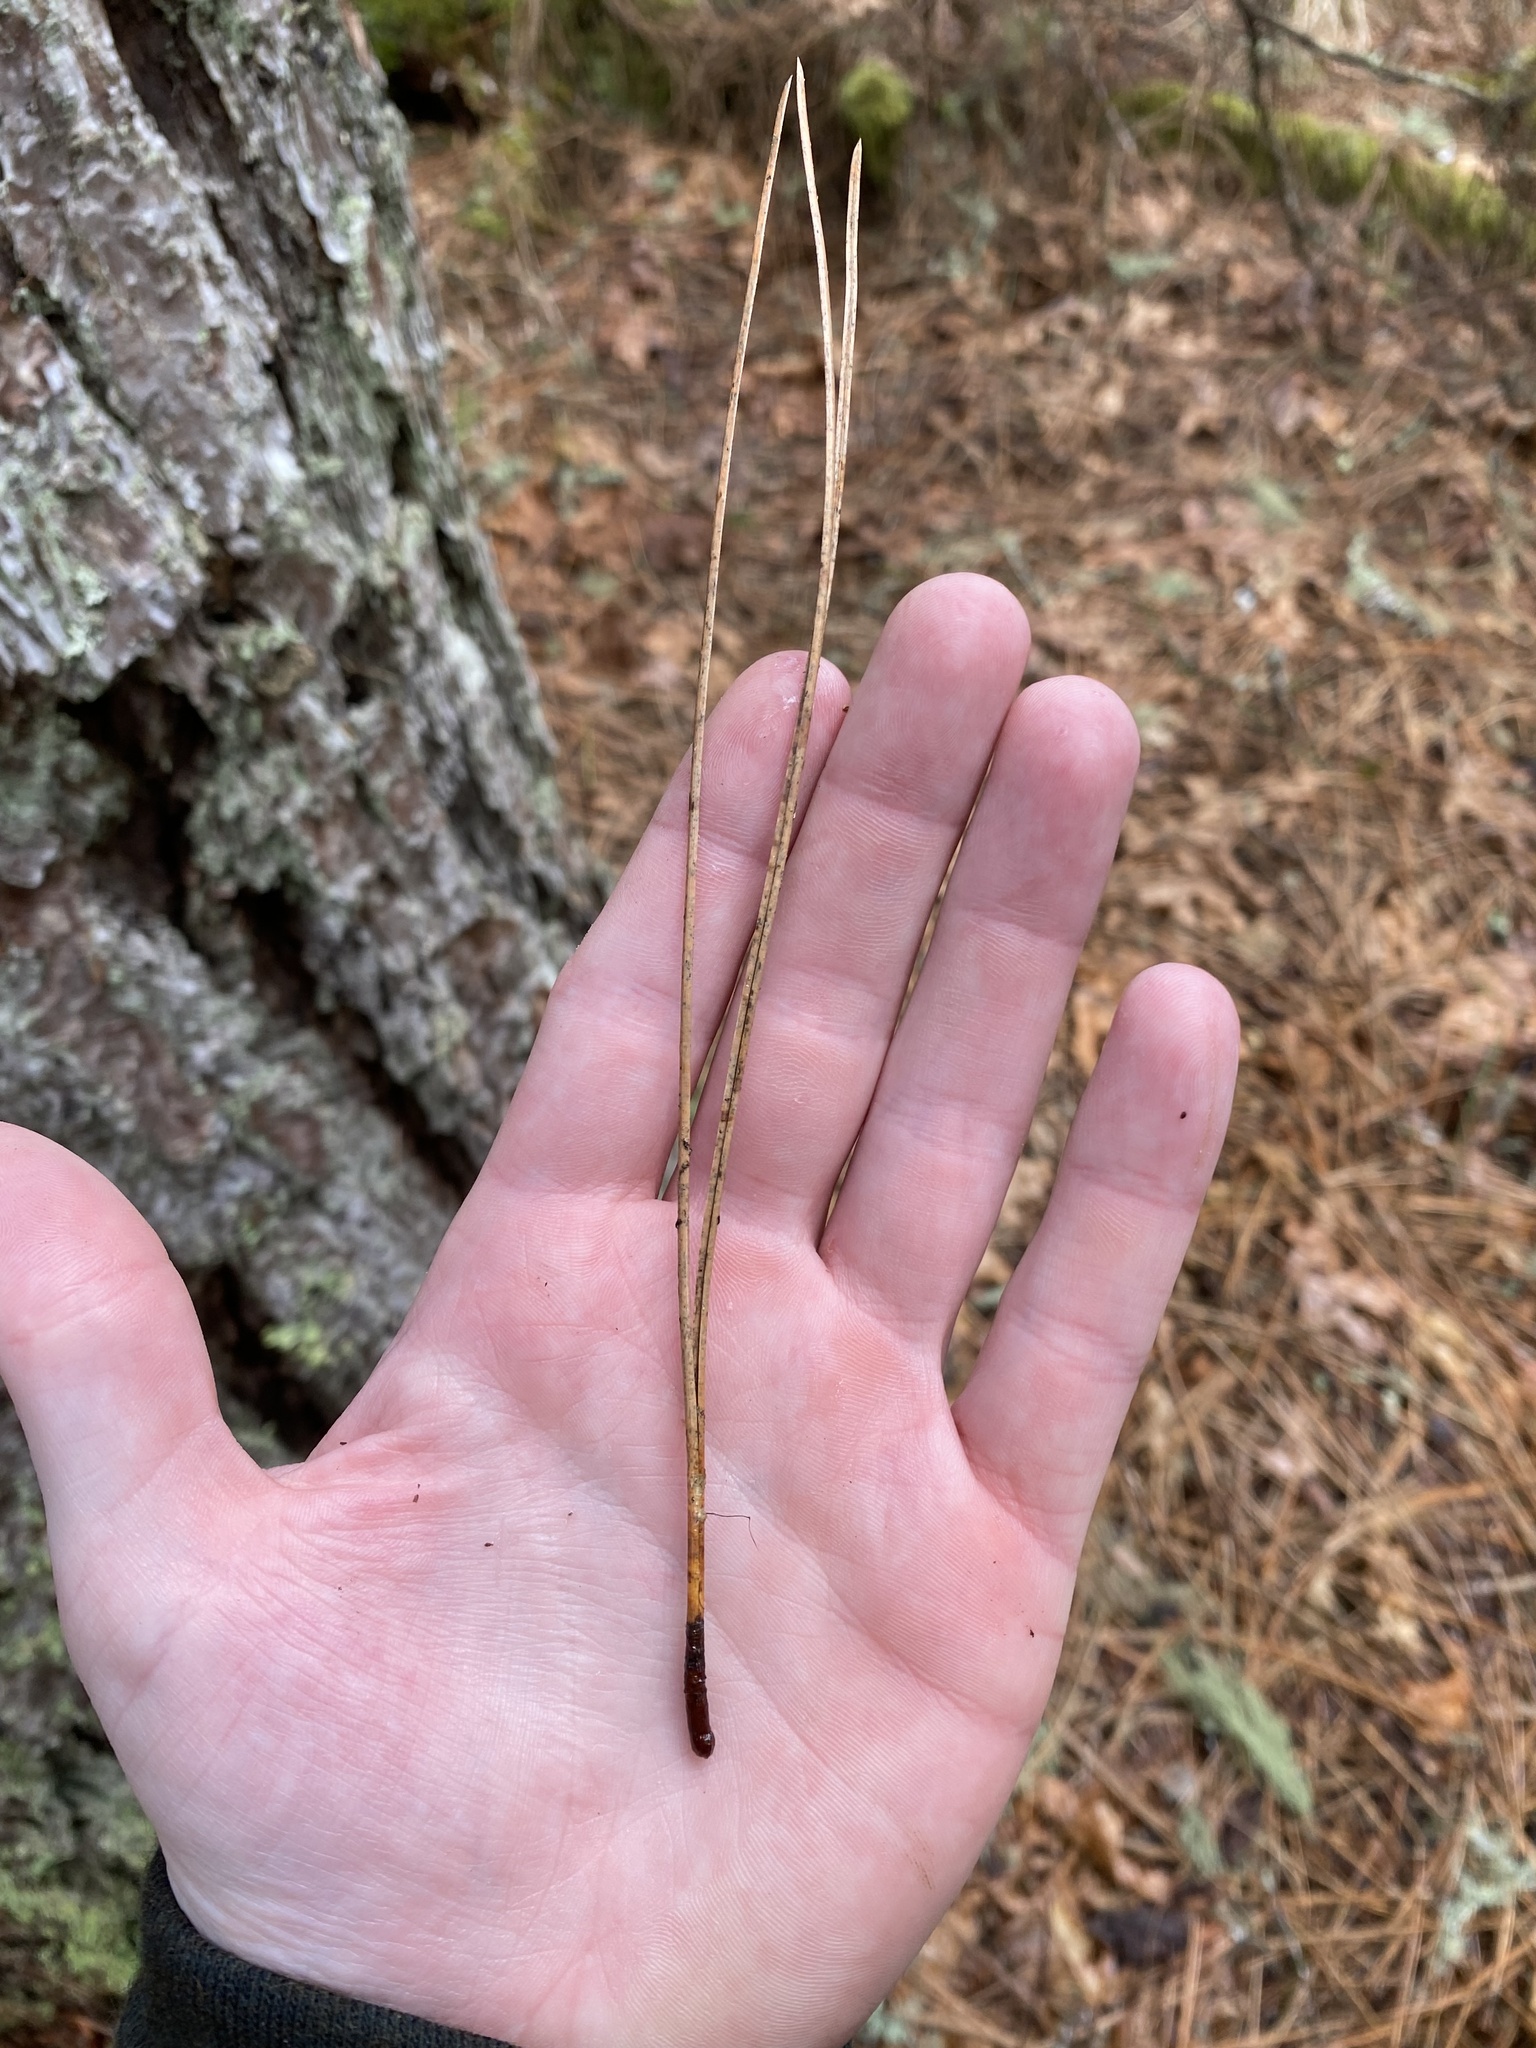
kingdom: Plantae
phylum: Tracheophyta
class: Pinopsida
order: Pinales
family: Pinaceae
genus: Pinus
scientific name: Pinus ponderosa
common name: Western yellow-pine
